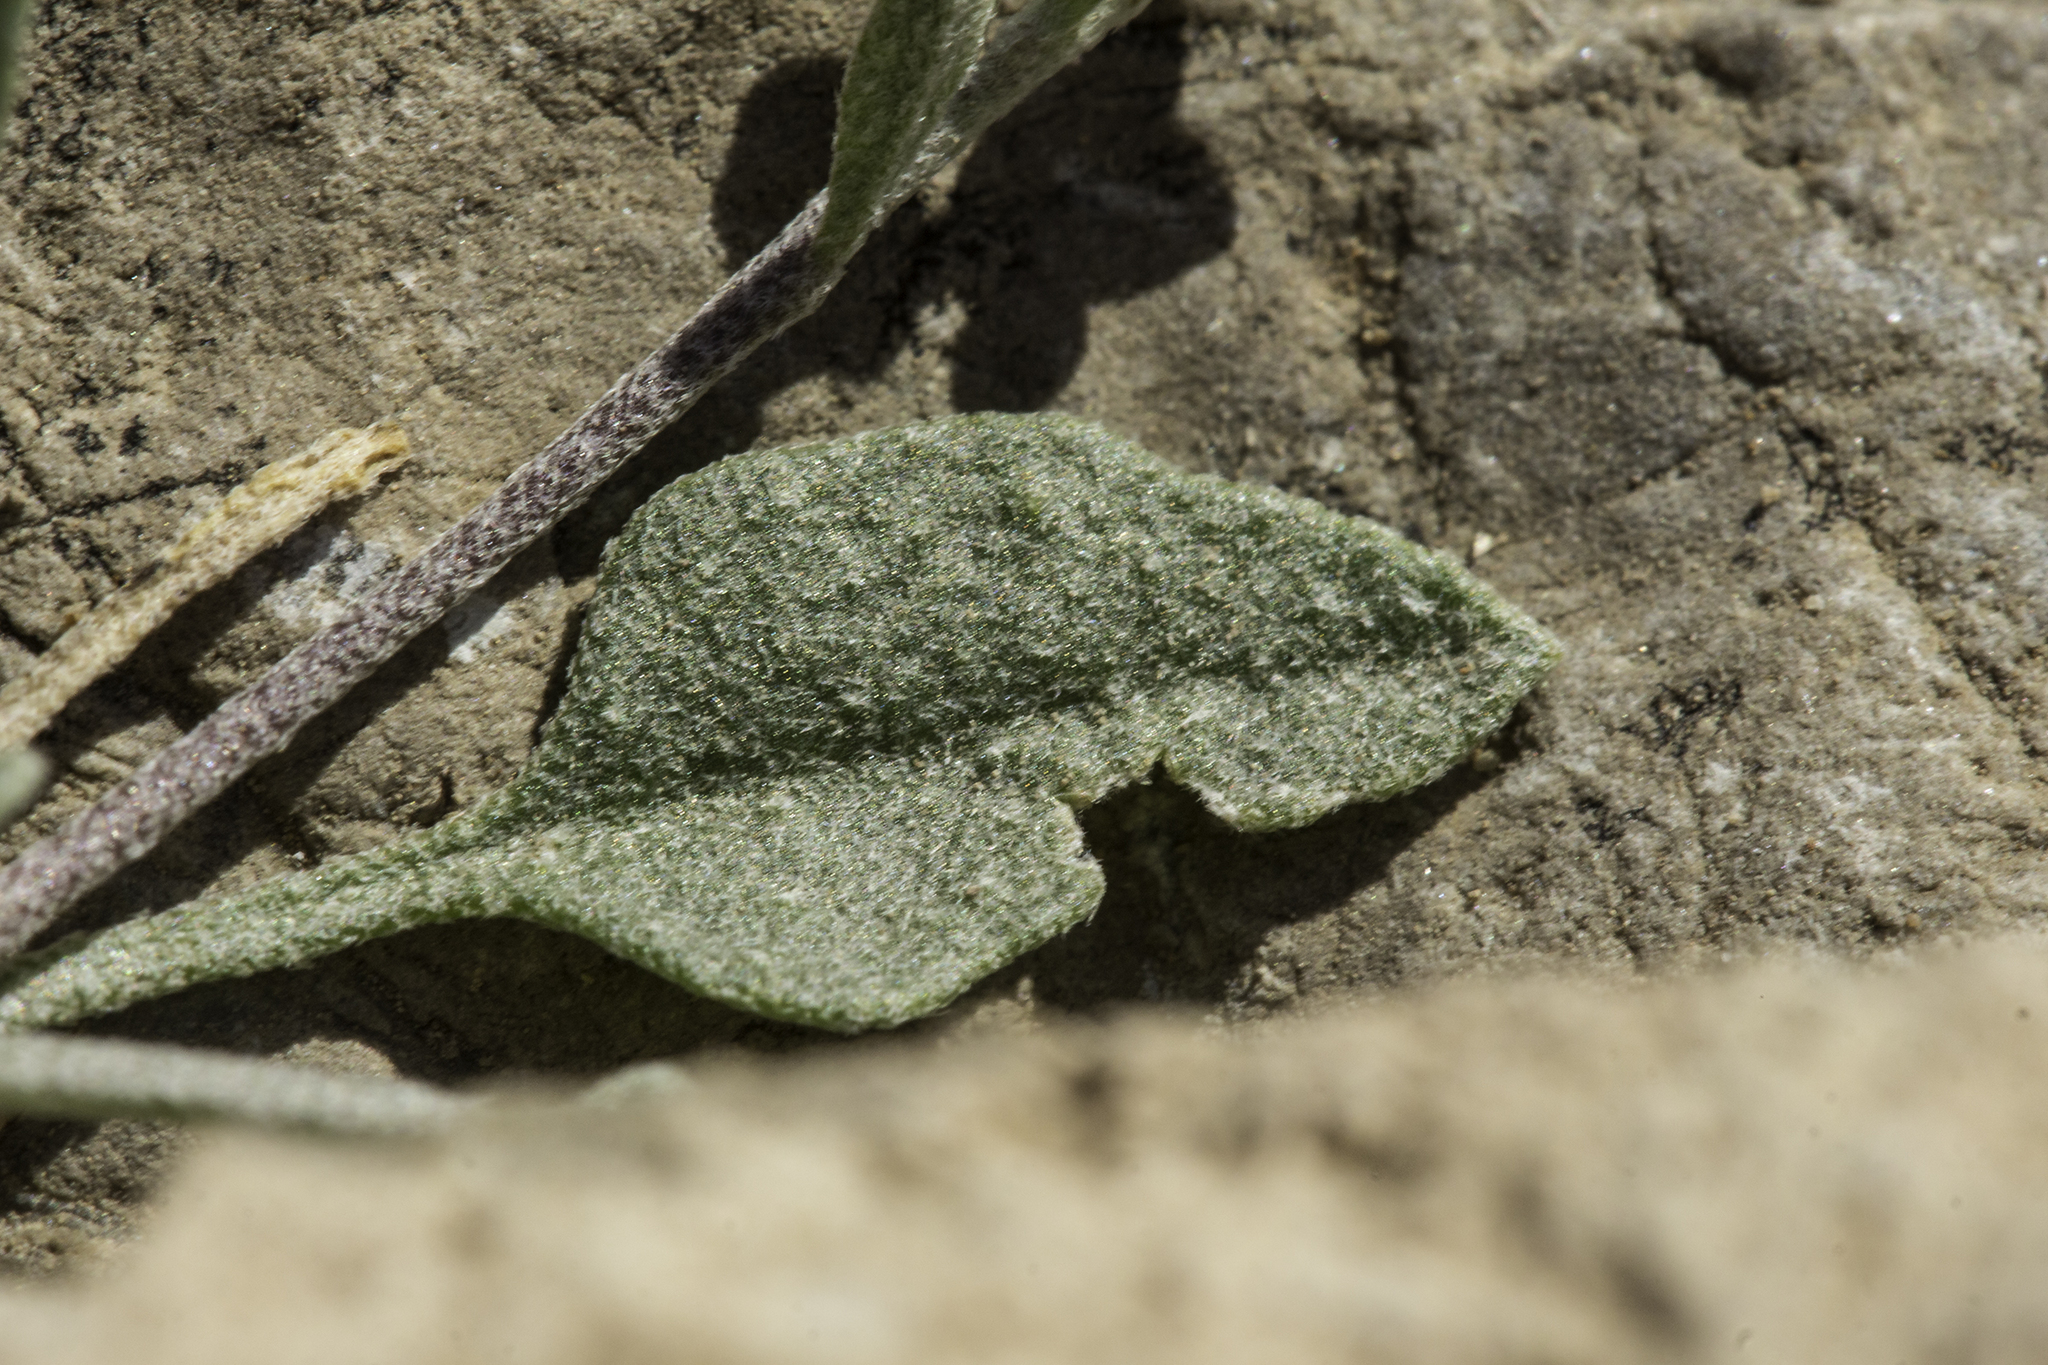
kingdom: Plantae
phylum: Tracheophyta
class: Magnoliopsida
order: Brassicales
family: Brassicaceae
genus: Physaria
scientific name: Physaria purpurea
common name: Rose bladderpod
